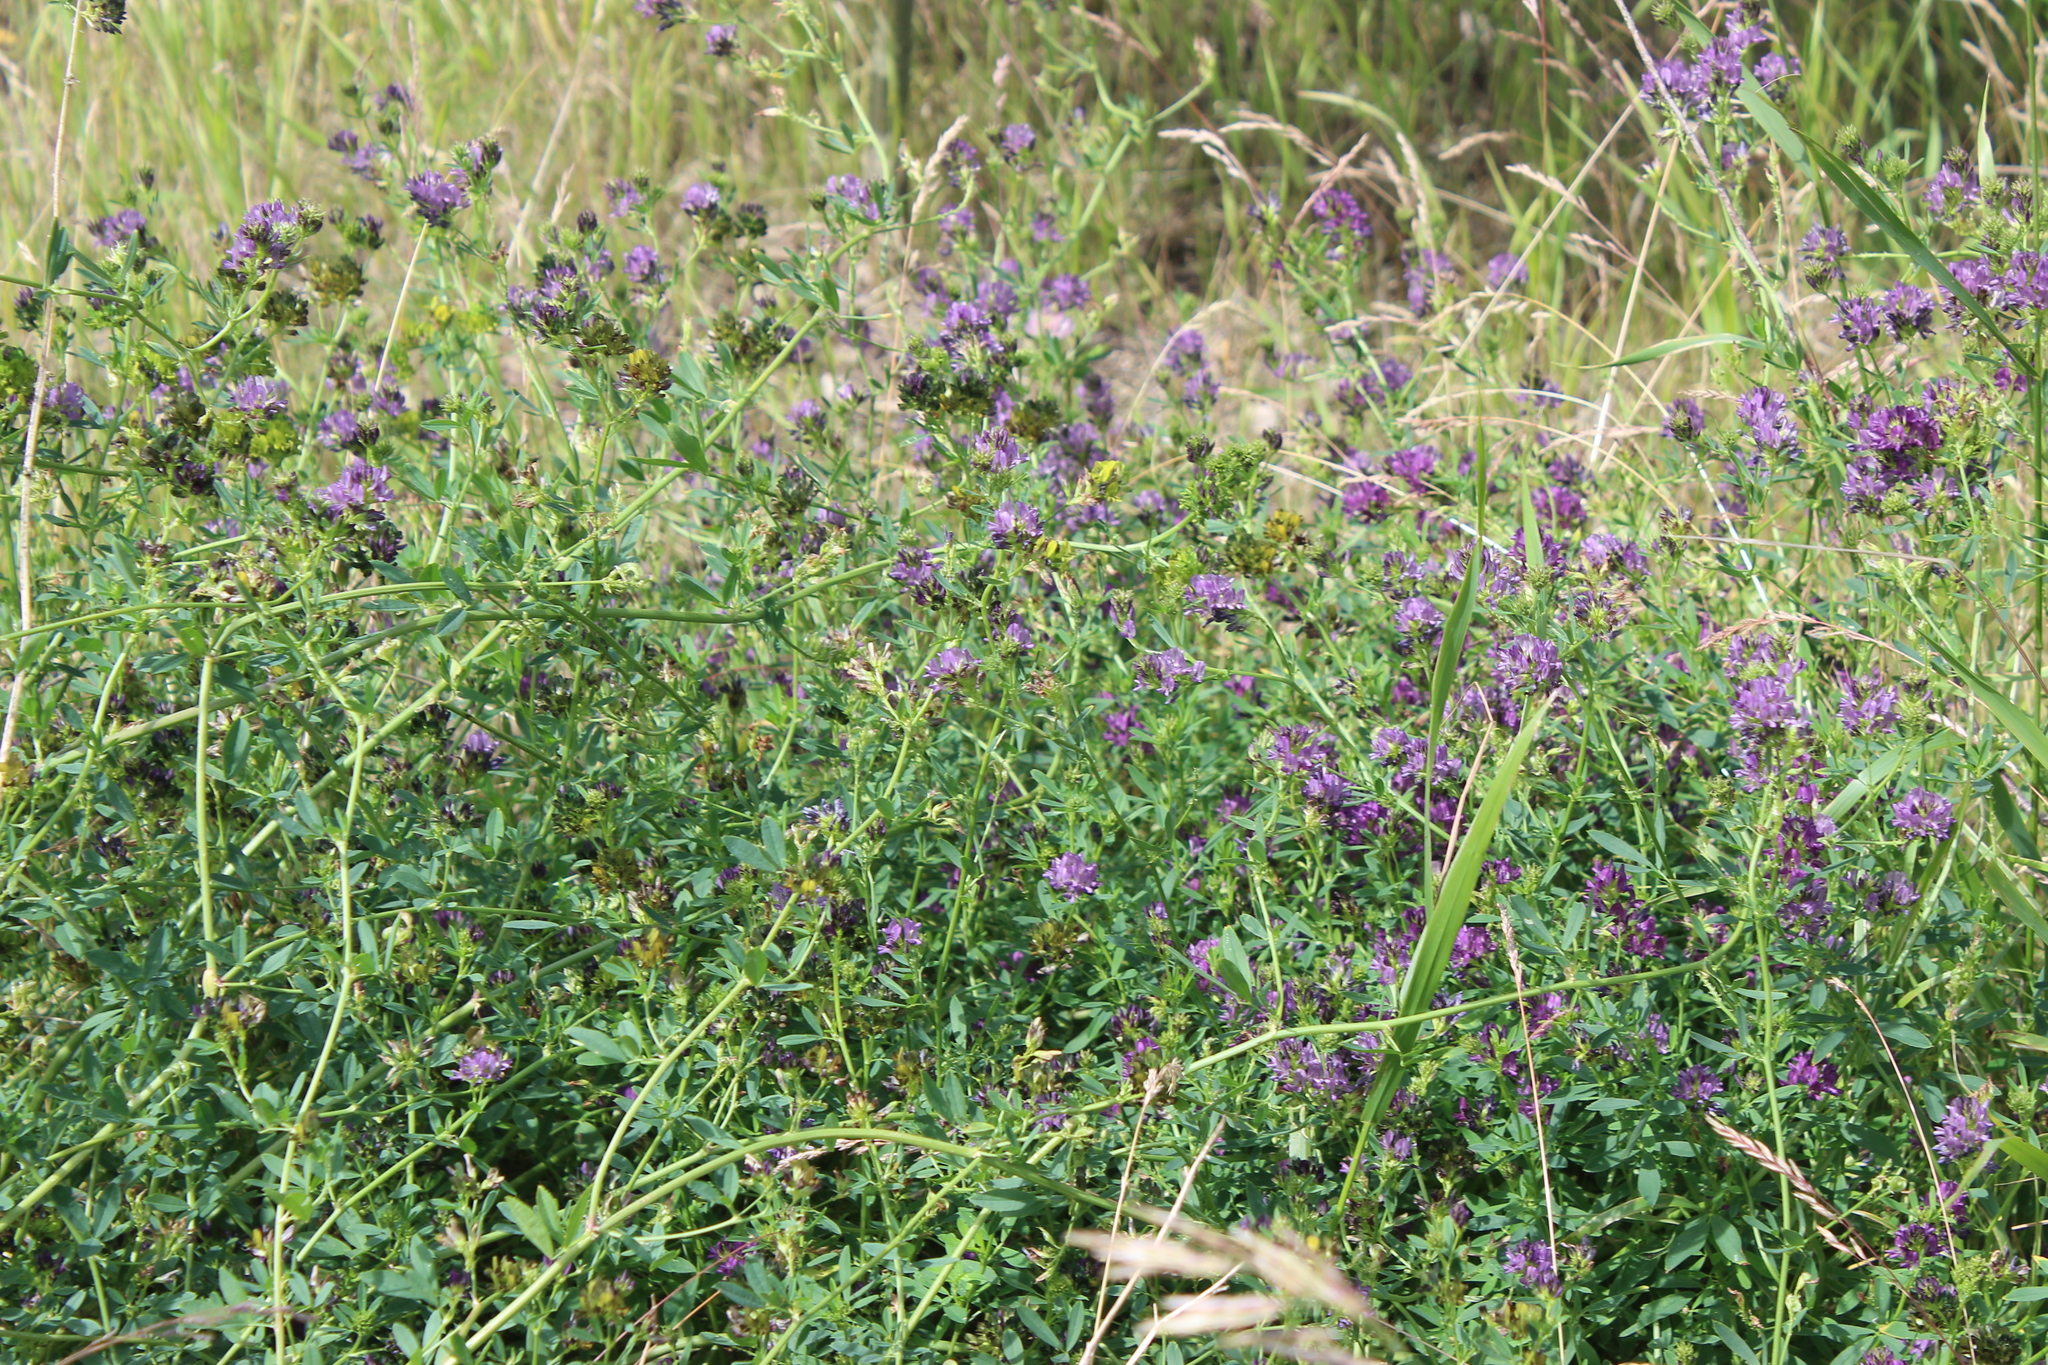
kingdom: Plantae
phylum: Tracheophyta
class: Magnoliopsida
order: Fabales
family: Fabaceae
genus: Medicago
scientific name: Medicago varia
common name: Sand lucerne
